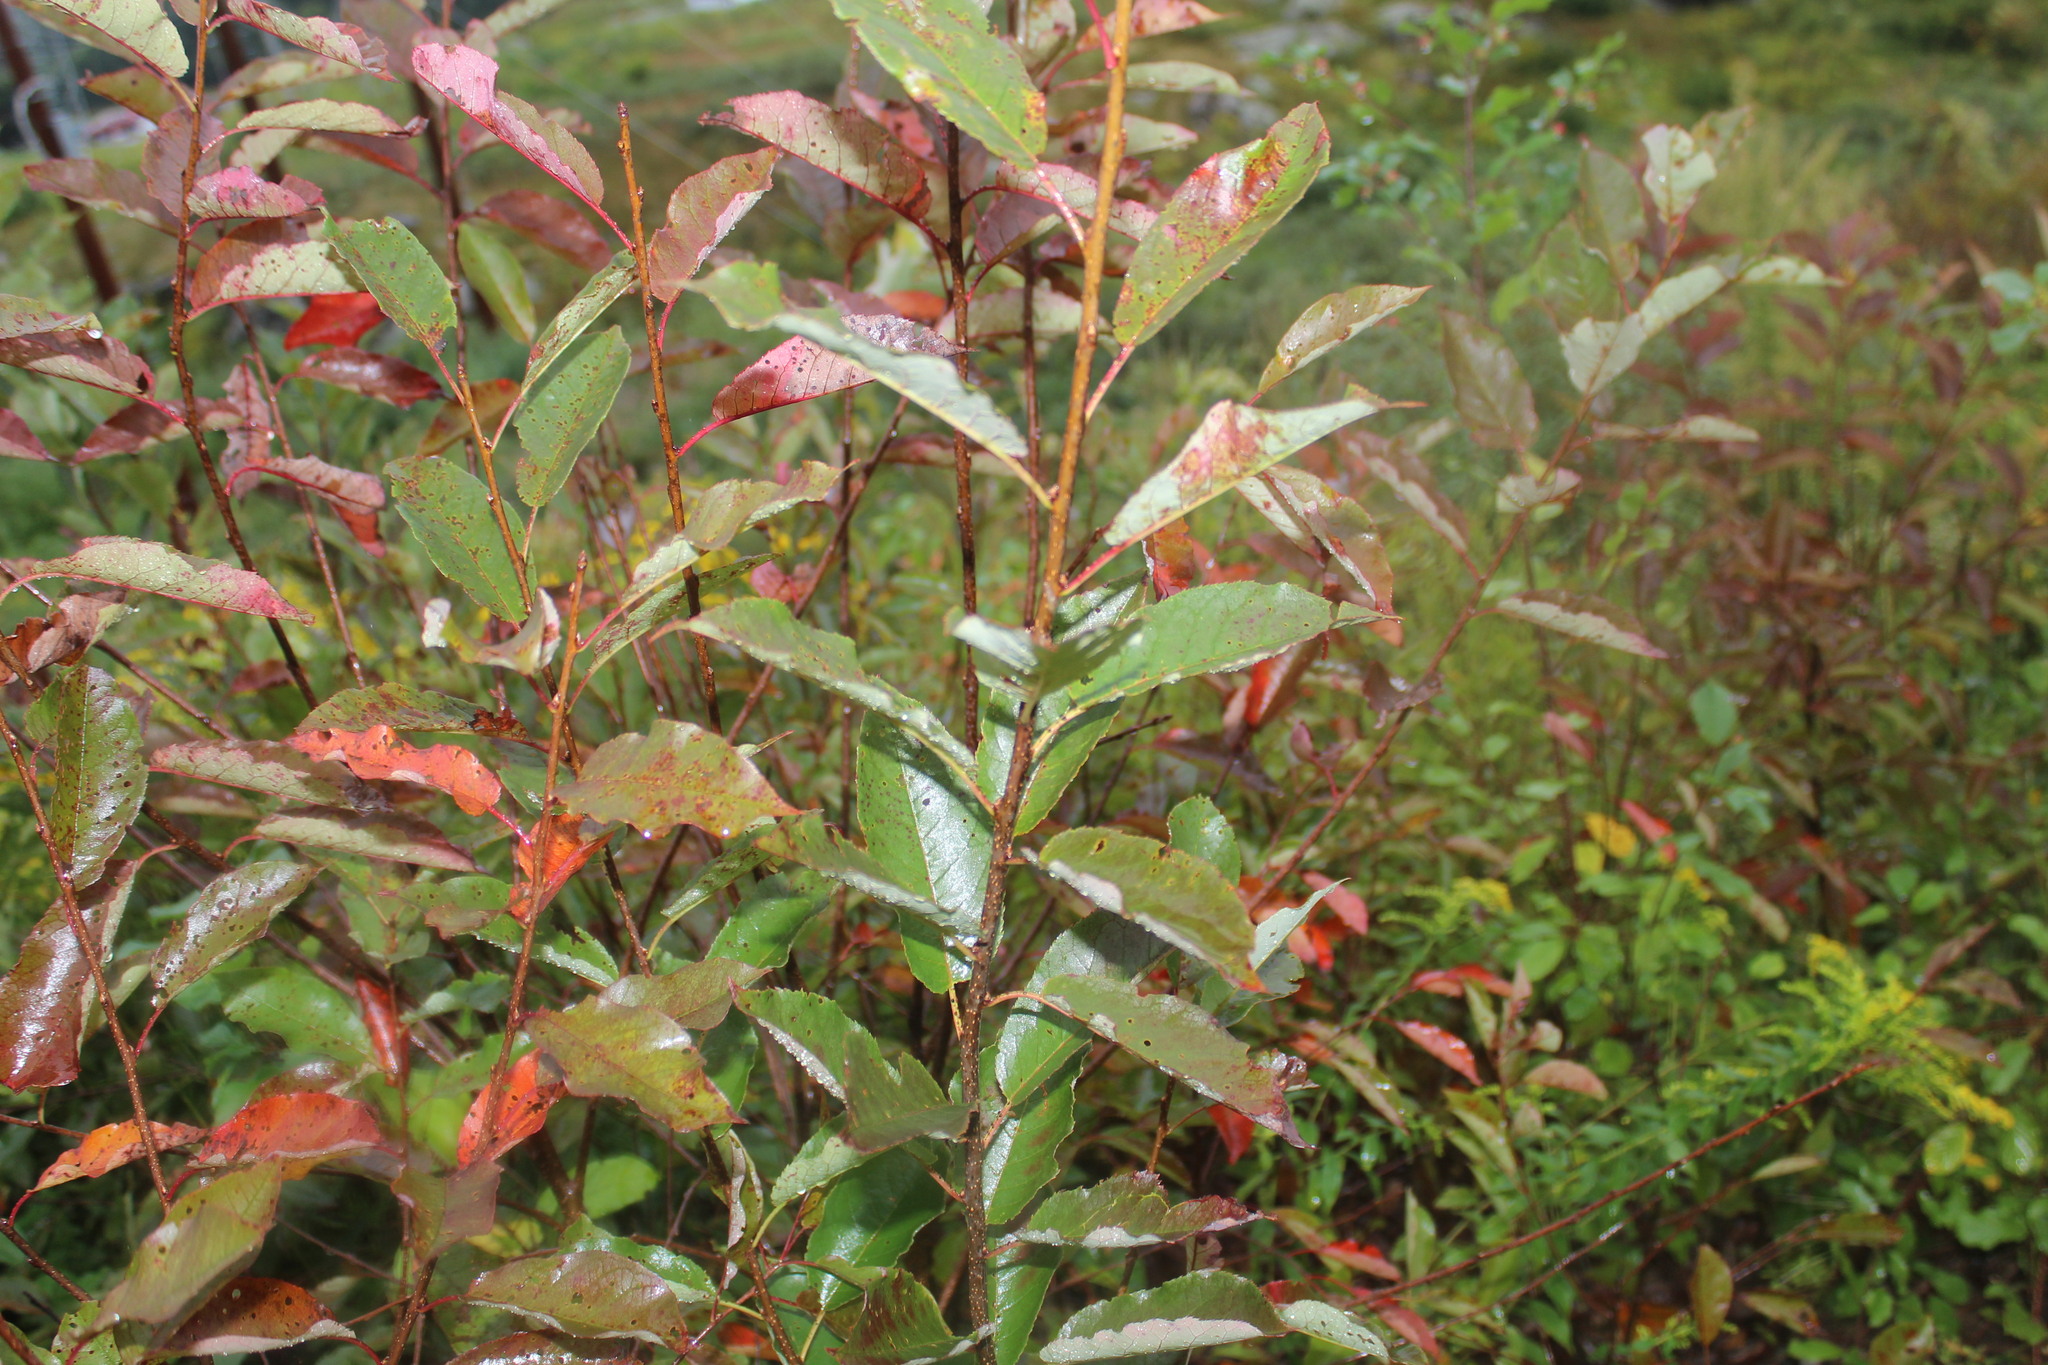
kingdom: Plantae
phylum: Tracheophyta
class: Magnoliopsida
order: Rosales
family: Rosaceae
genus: Prunus
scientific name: Prunus virginiana
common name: Chokecherry
